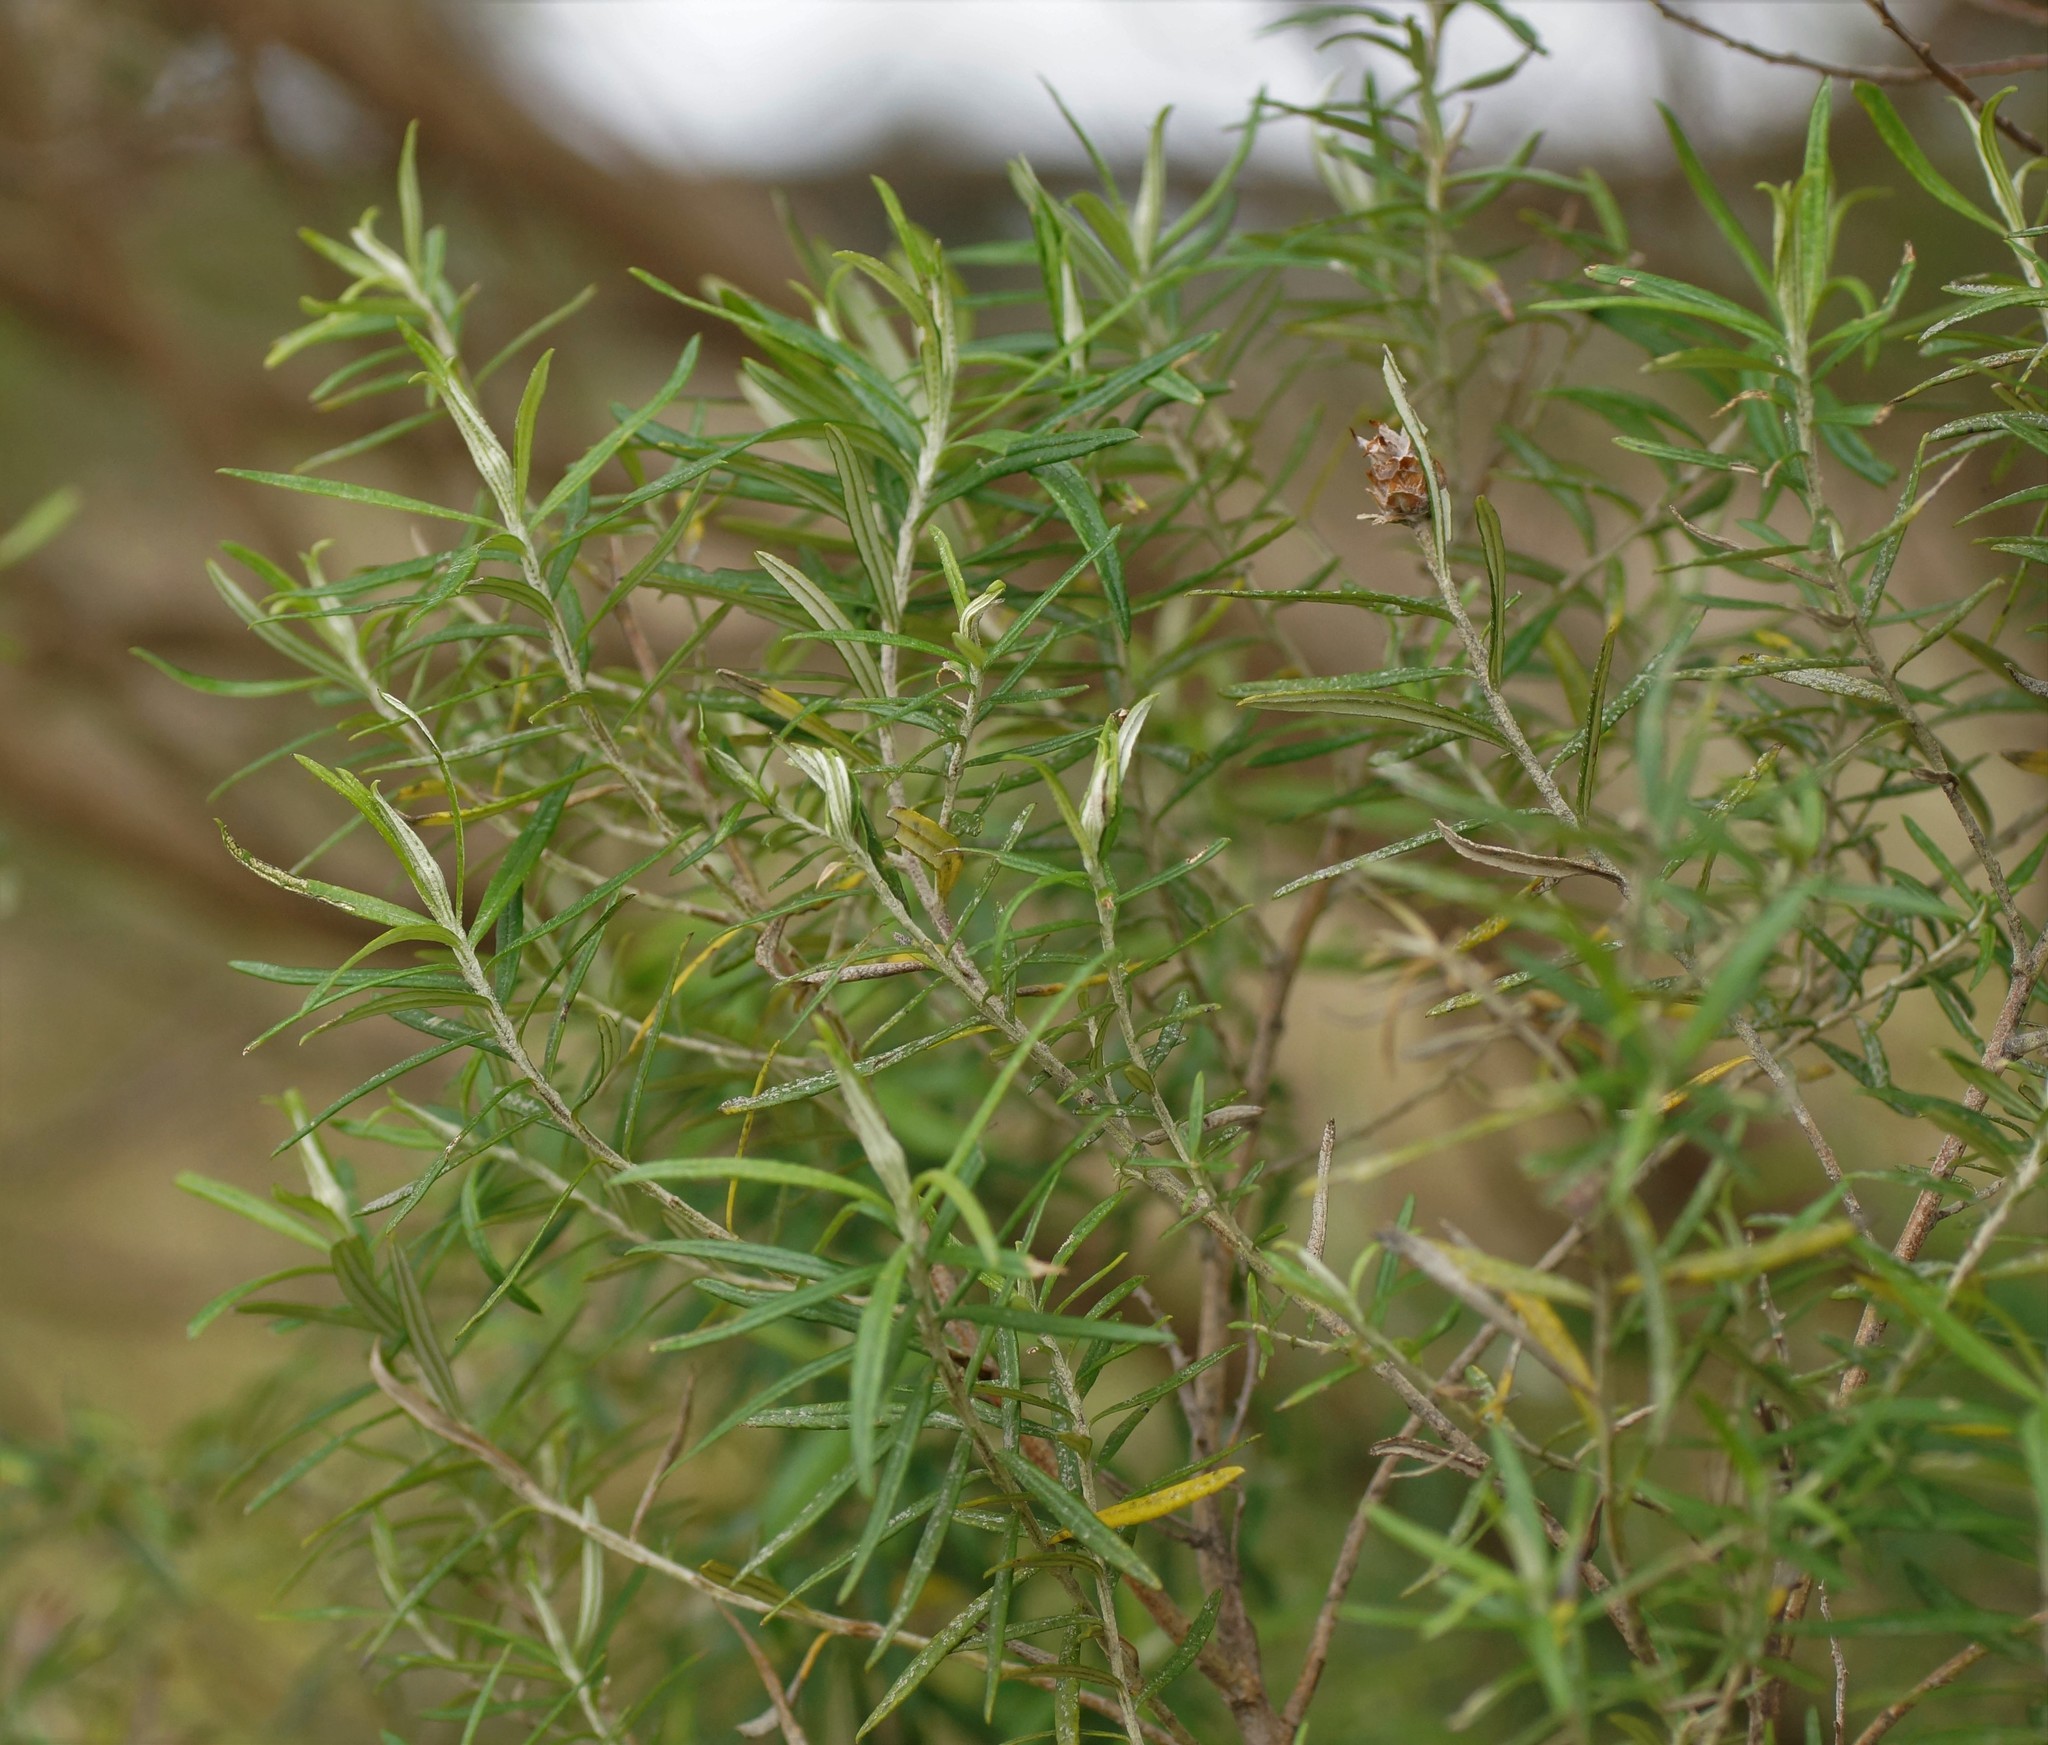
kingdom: Plantae
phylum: Tracheophyta
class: Magnoliopsida
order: Asterales
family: Asteraceae
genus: Ozothamnus
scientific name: Ozothamnus ferrugineus
